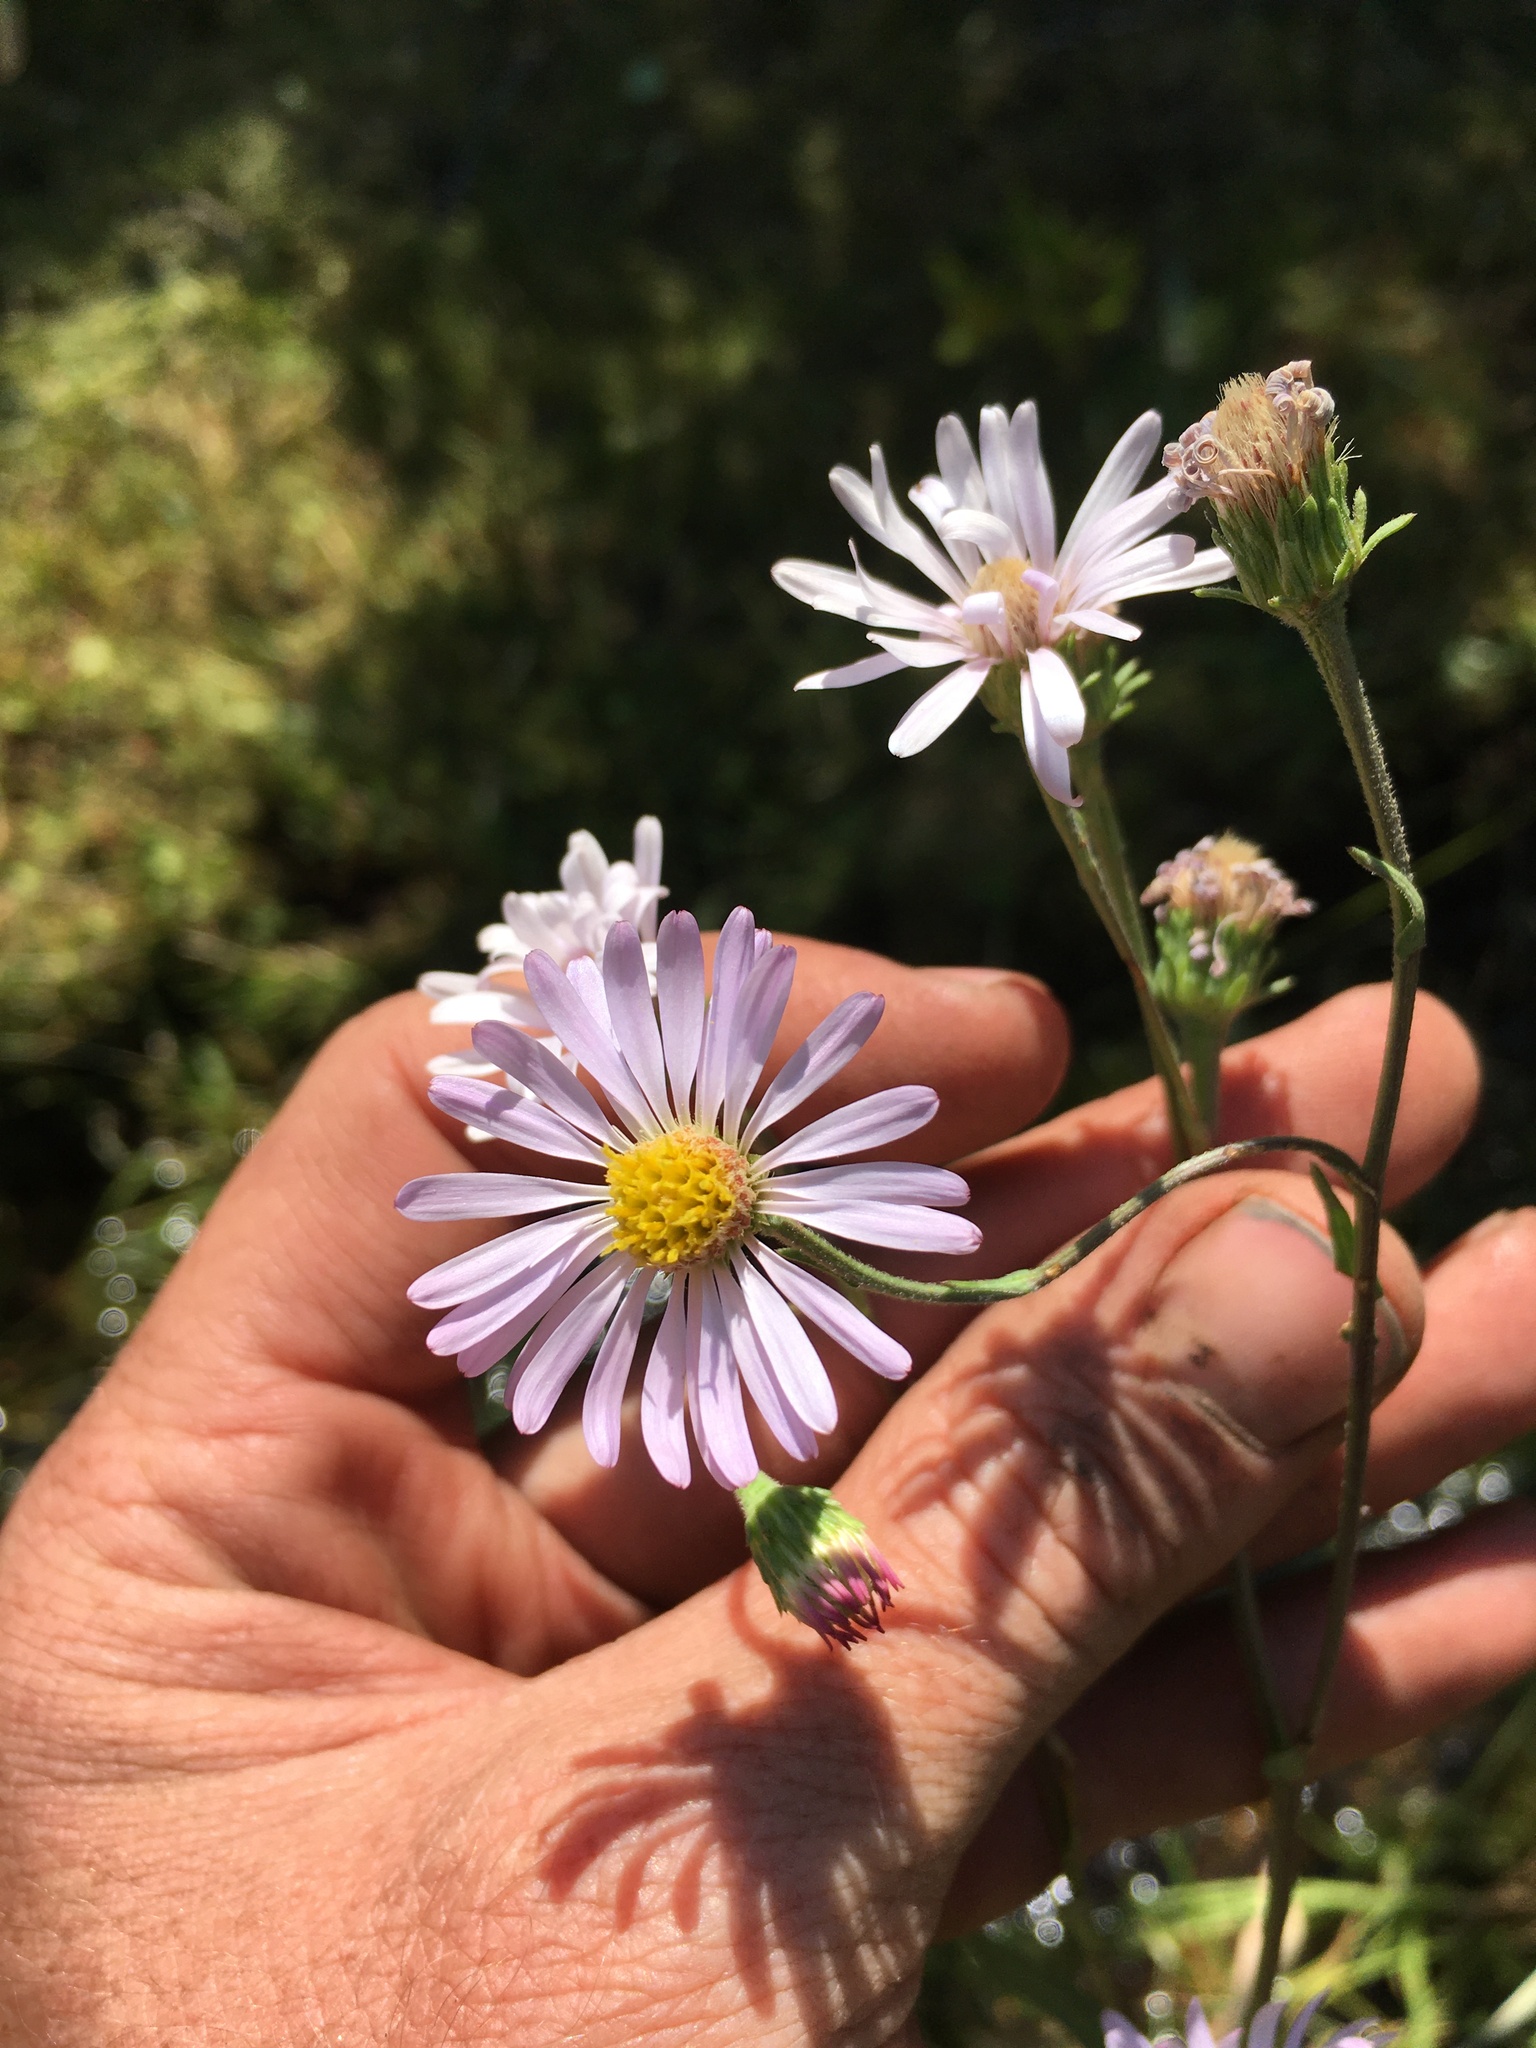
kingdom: Plantae
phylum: Tracheophyta
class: Magnoliopsida
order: Asterales
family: Asteraceae
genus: Symphyotrichum
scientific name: Symphyotrichum spathulatum
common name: Western mountain aster
